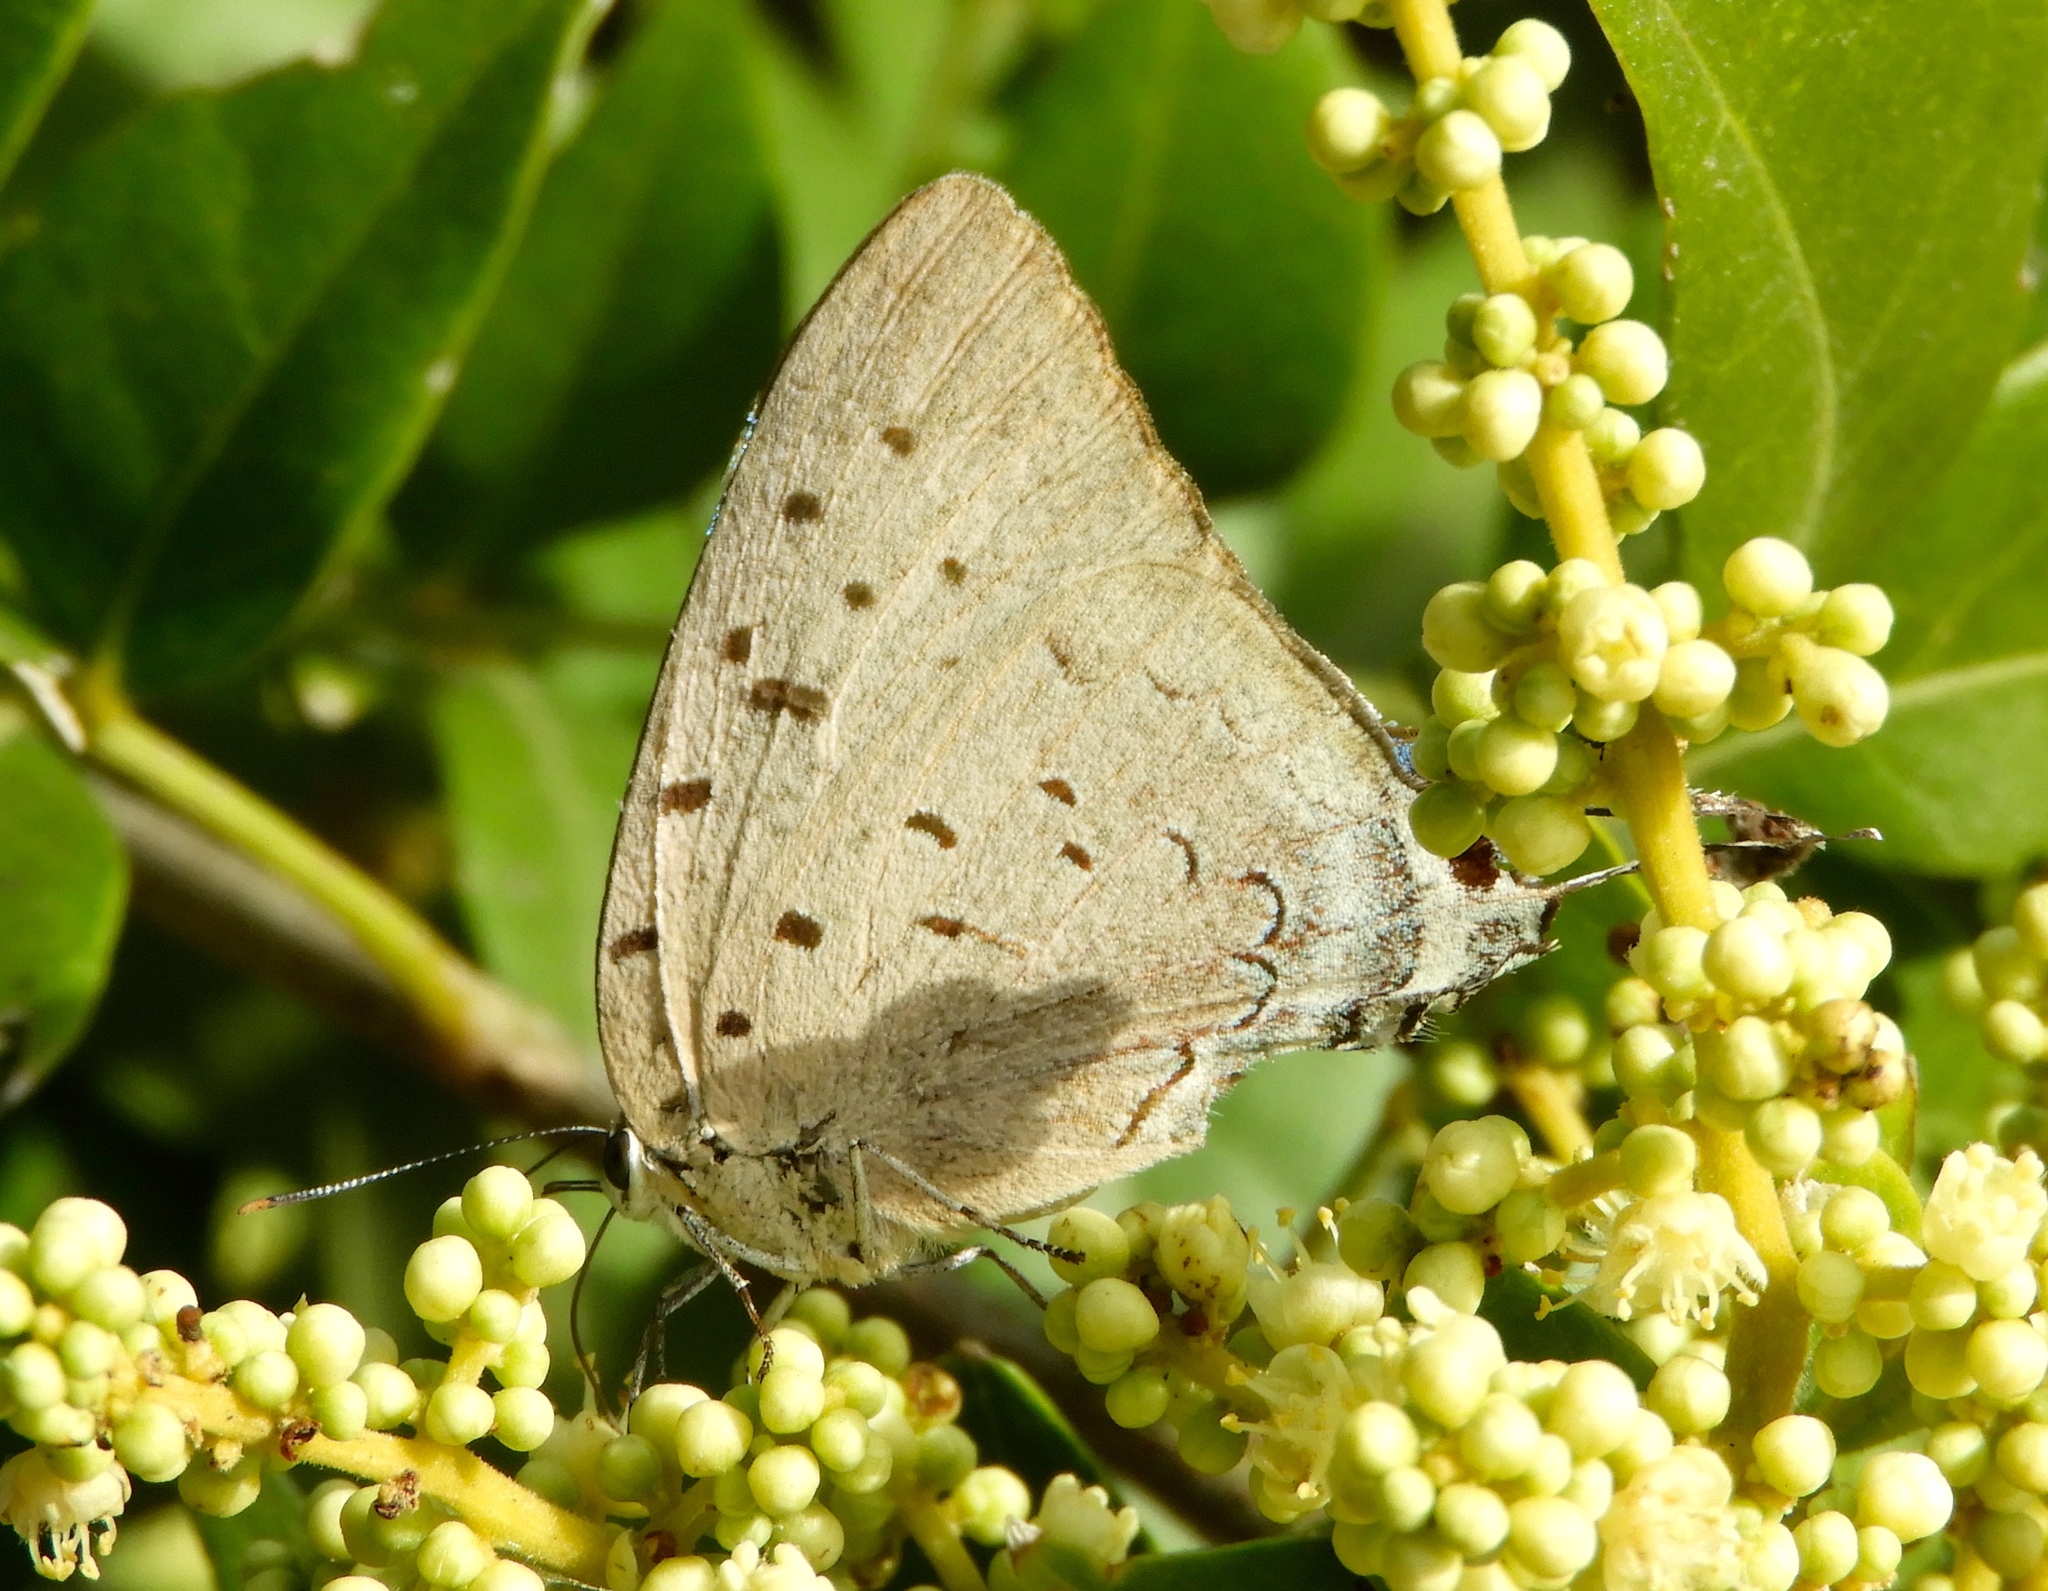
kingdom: Animalia
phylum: Arthropoda
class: Insecta
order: Lepidoptera
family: Lycaenidae
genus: Pseudolycaena
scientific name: Pseudolycaena damo
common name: Sky-blue hairstreak
